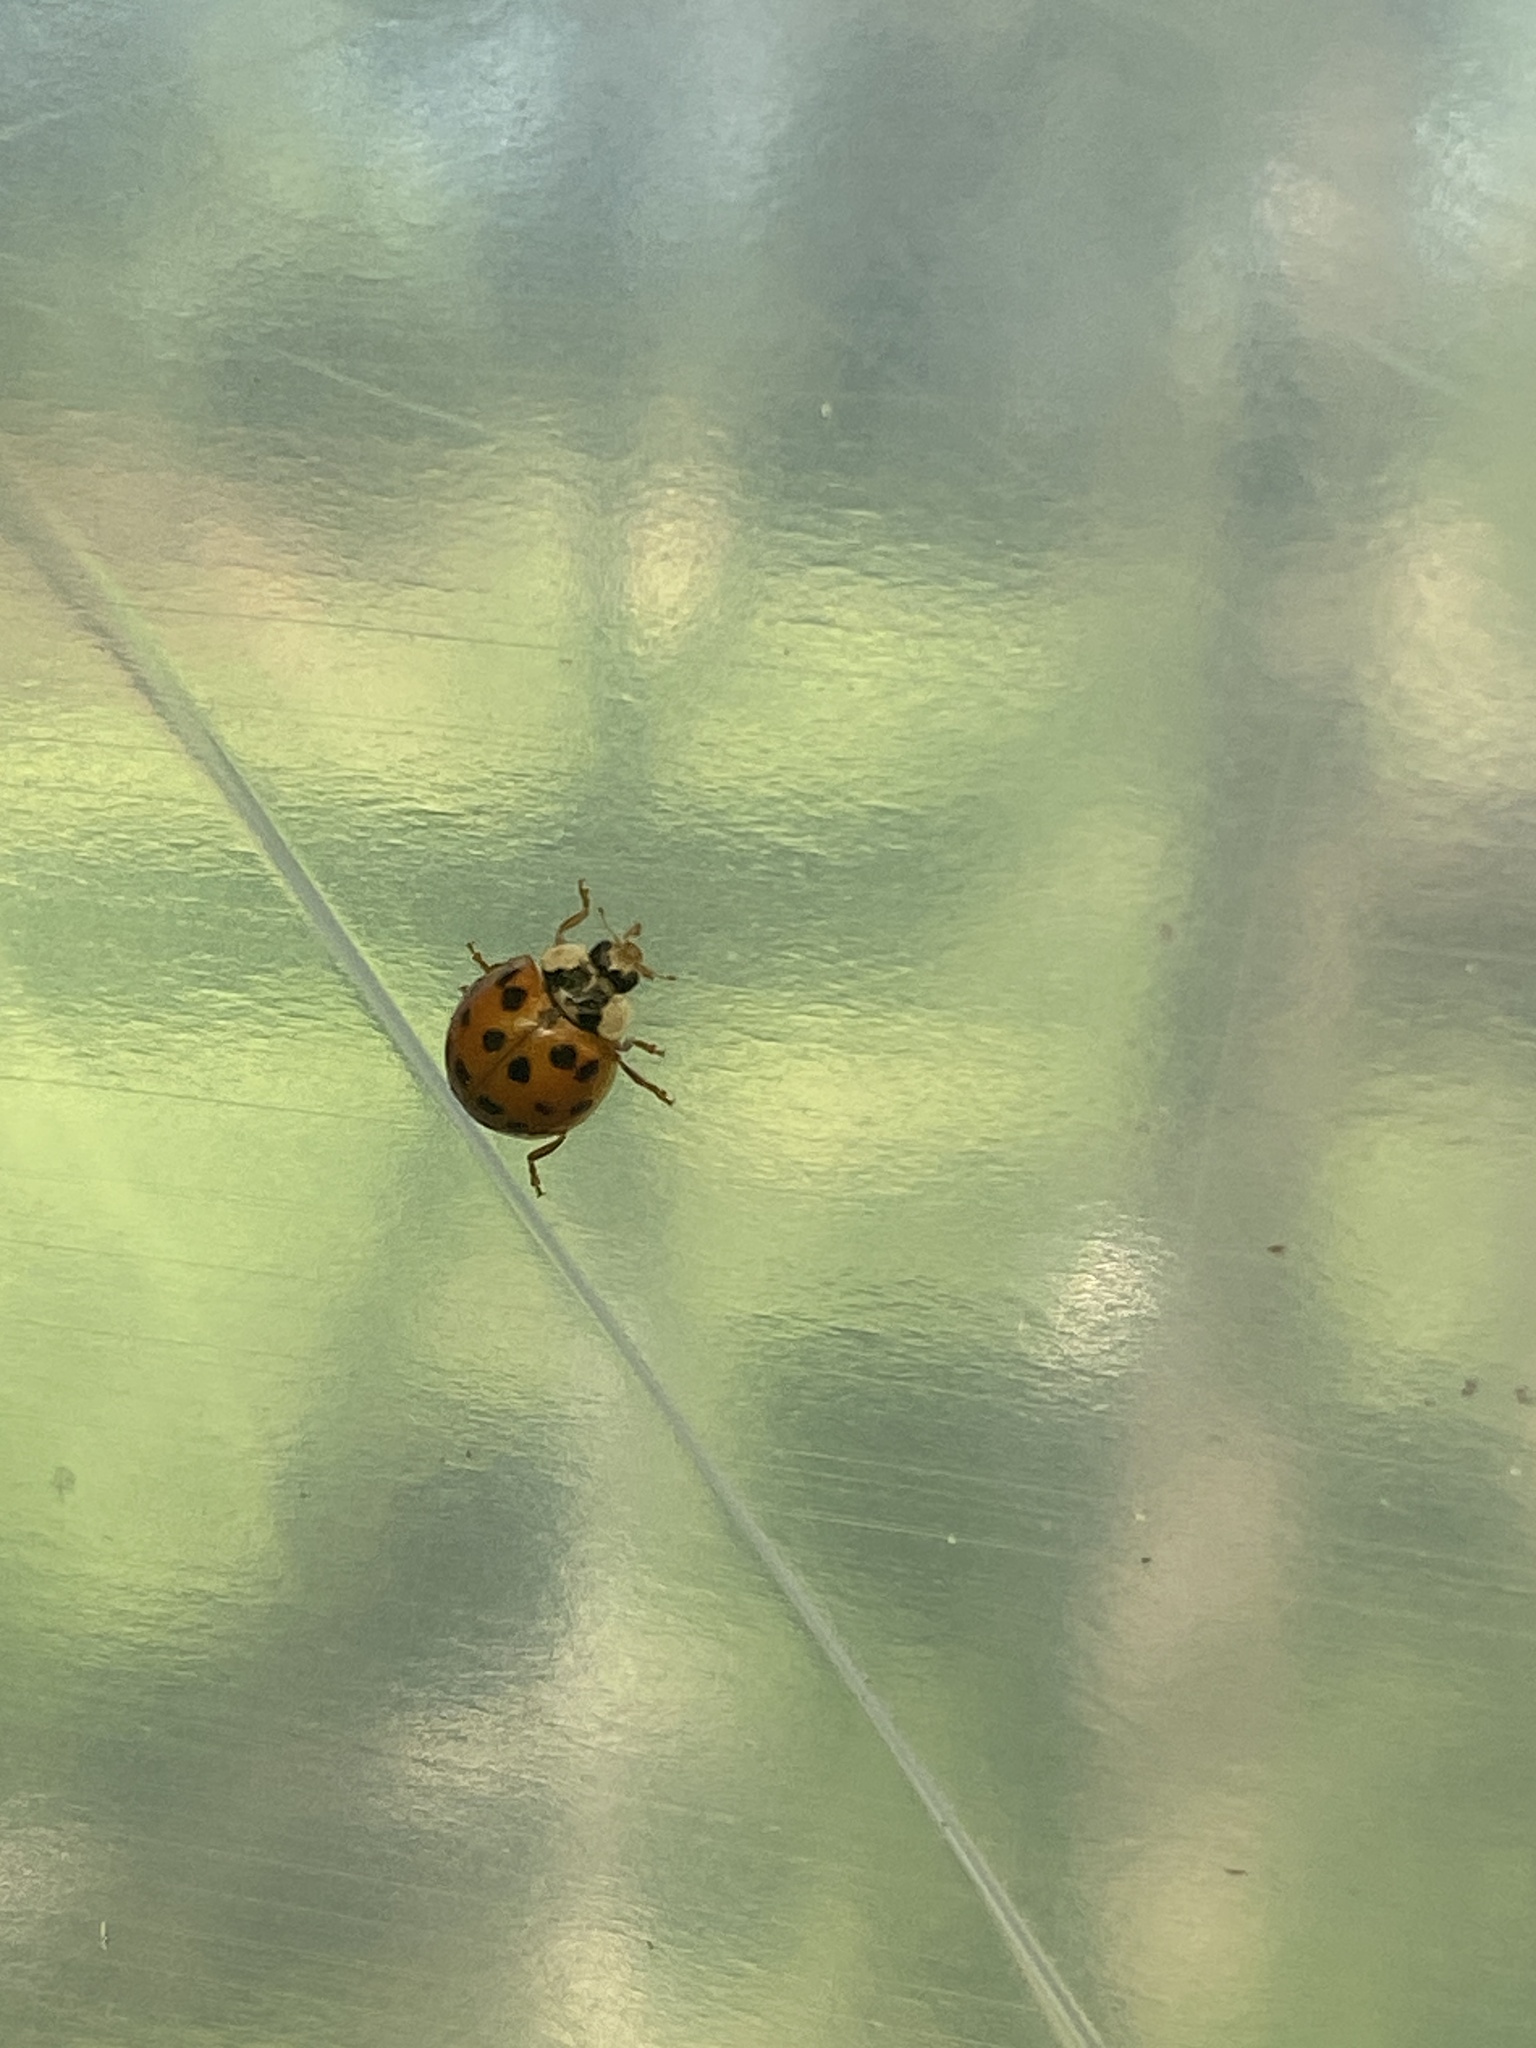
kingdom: Animalia
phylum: Arthropoda
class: Insecta
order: Coleoptera
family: Coccinellidae
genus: Harmonia
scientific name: Harmonia axyridis
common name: Harlequin ladybird
